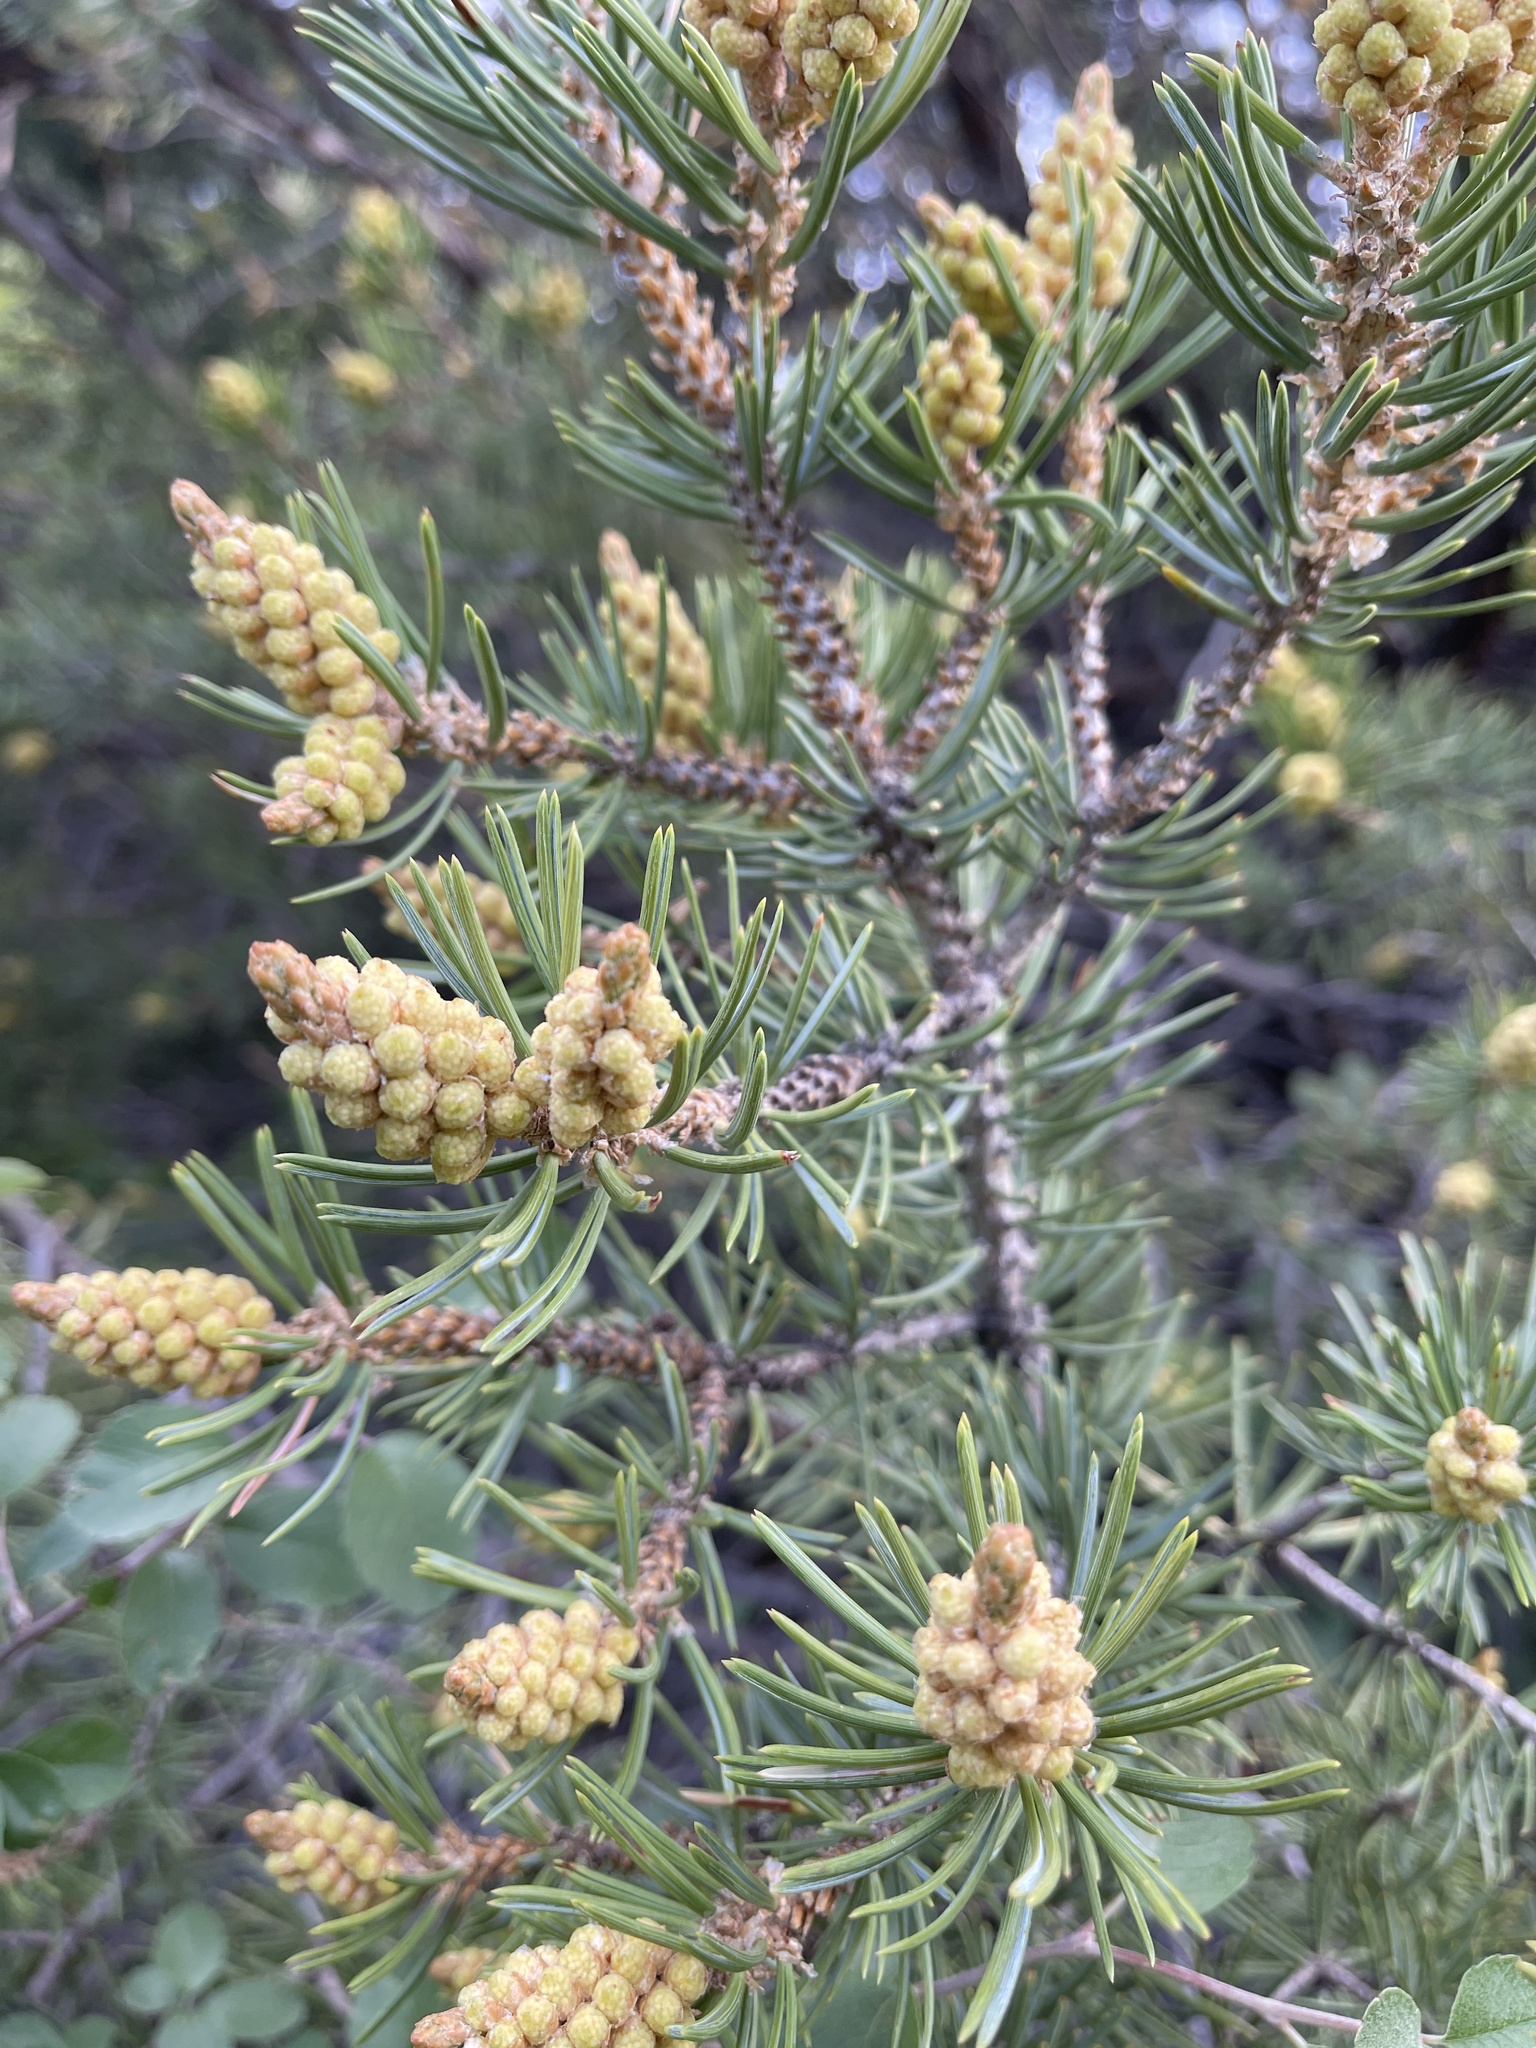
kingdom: Plantae
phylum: Tracheophyta
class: Pinopsida
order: Pinales
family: Pinaceae
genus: Pinus
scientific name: Pinus edulis
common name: Colorado pinyon
